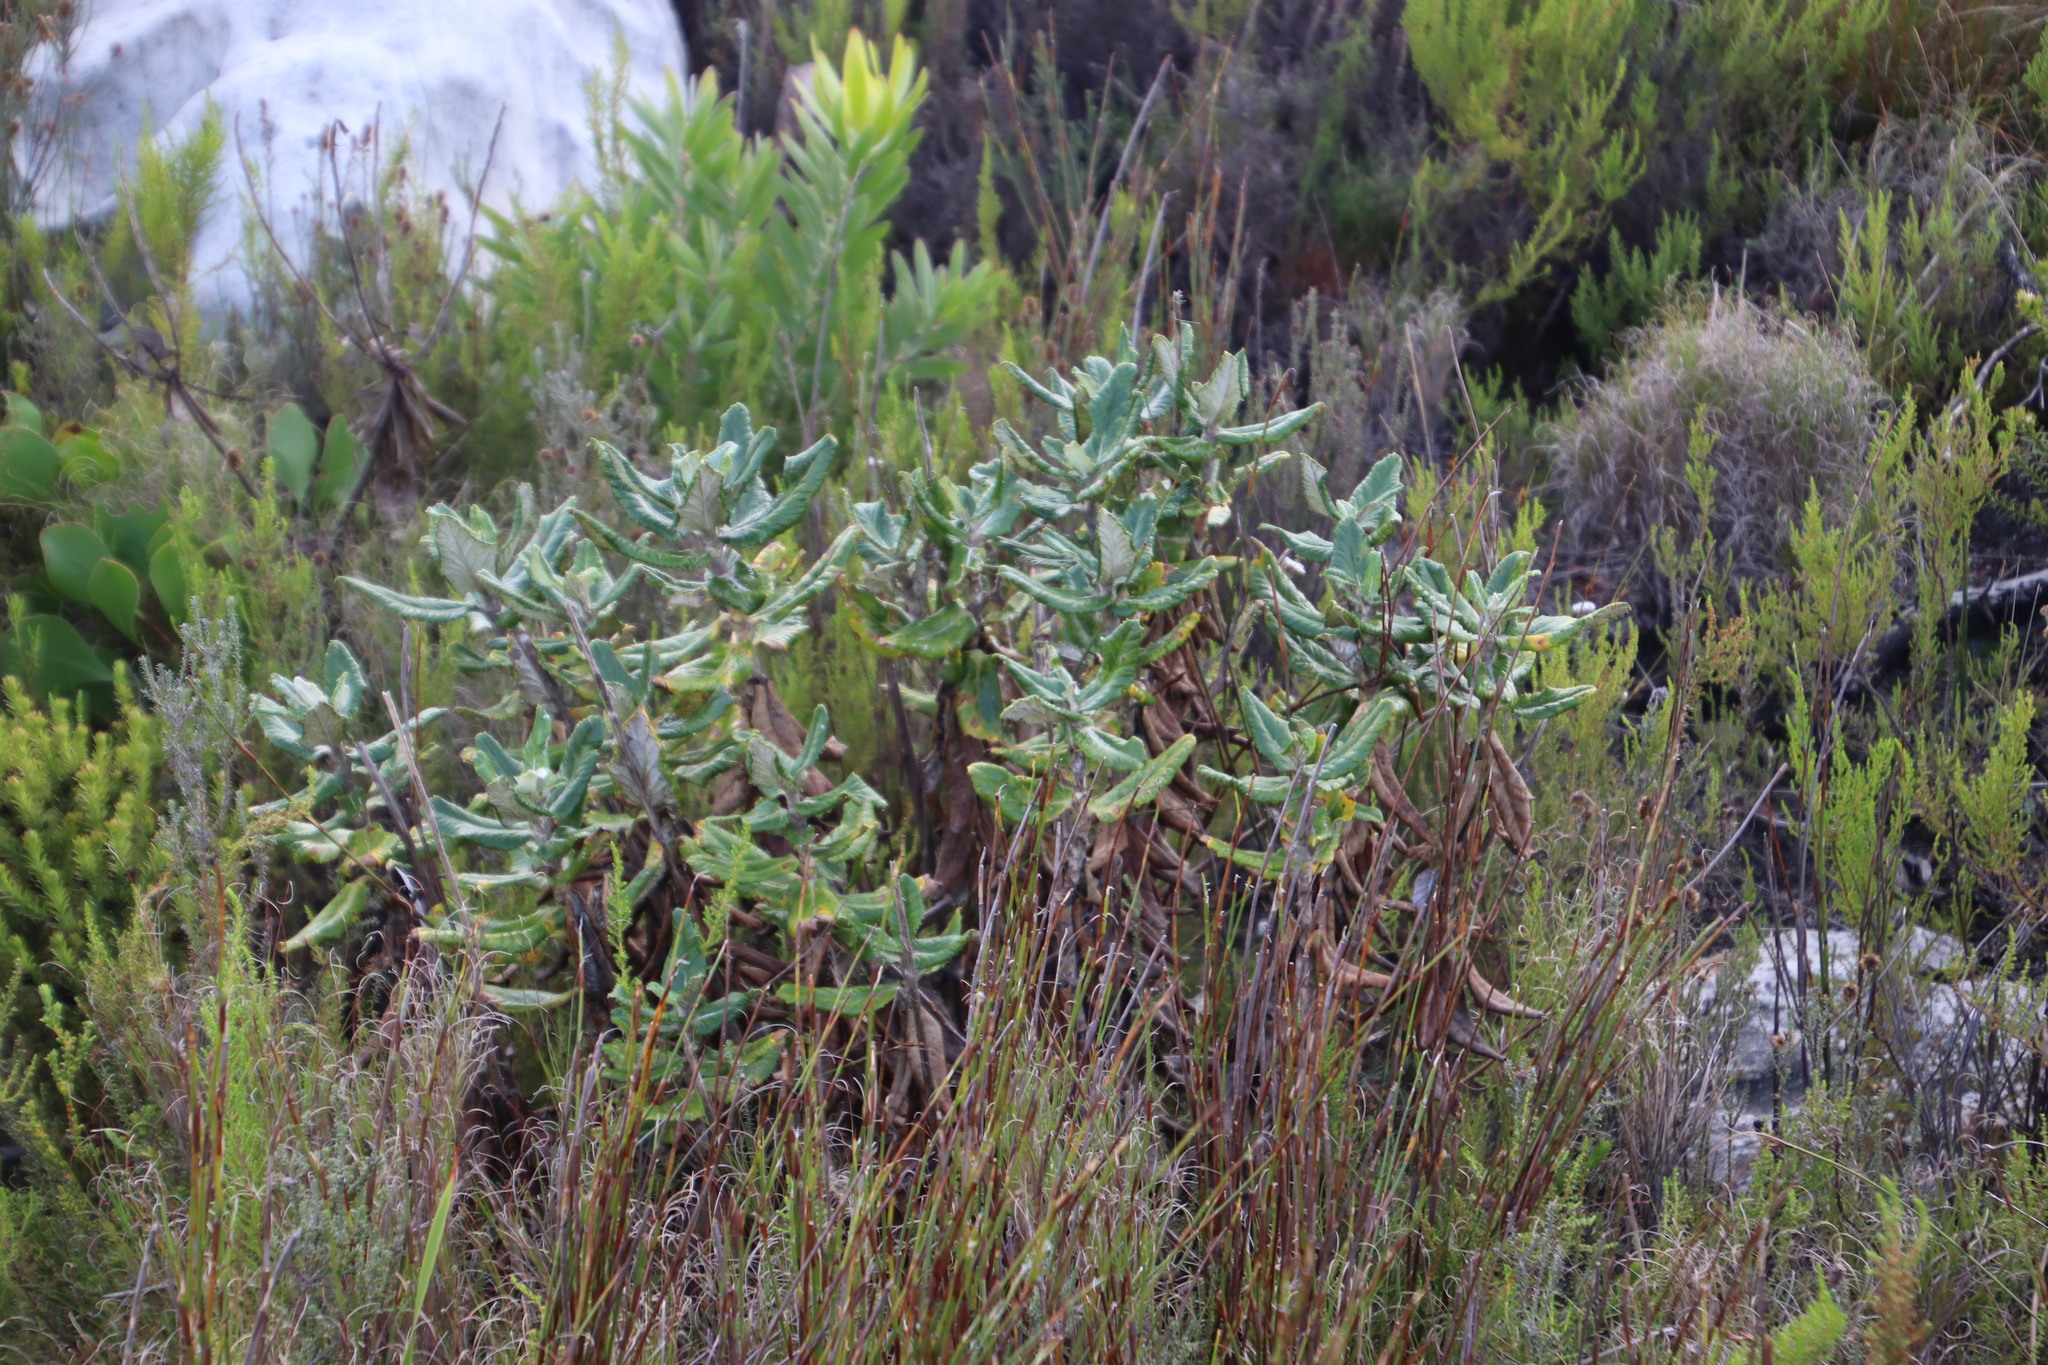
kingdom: Plantae
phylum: Tracheophyta
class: Magnoliopsida
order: Apiales
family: Apiaceae
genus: Hermas
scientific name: Hermas villosa
